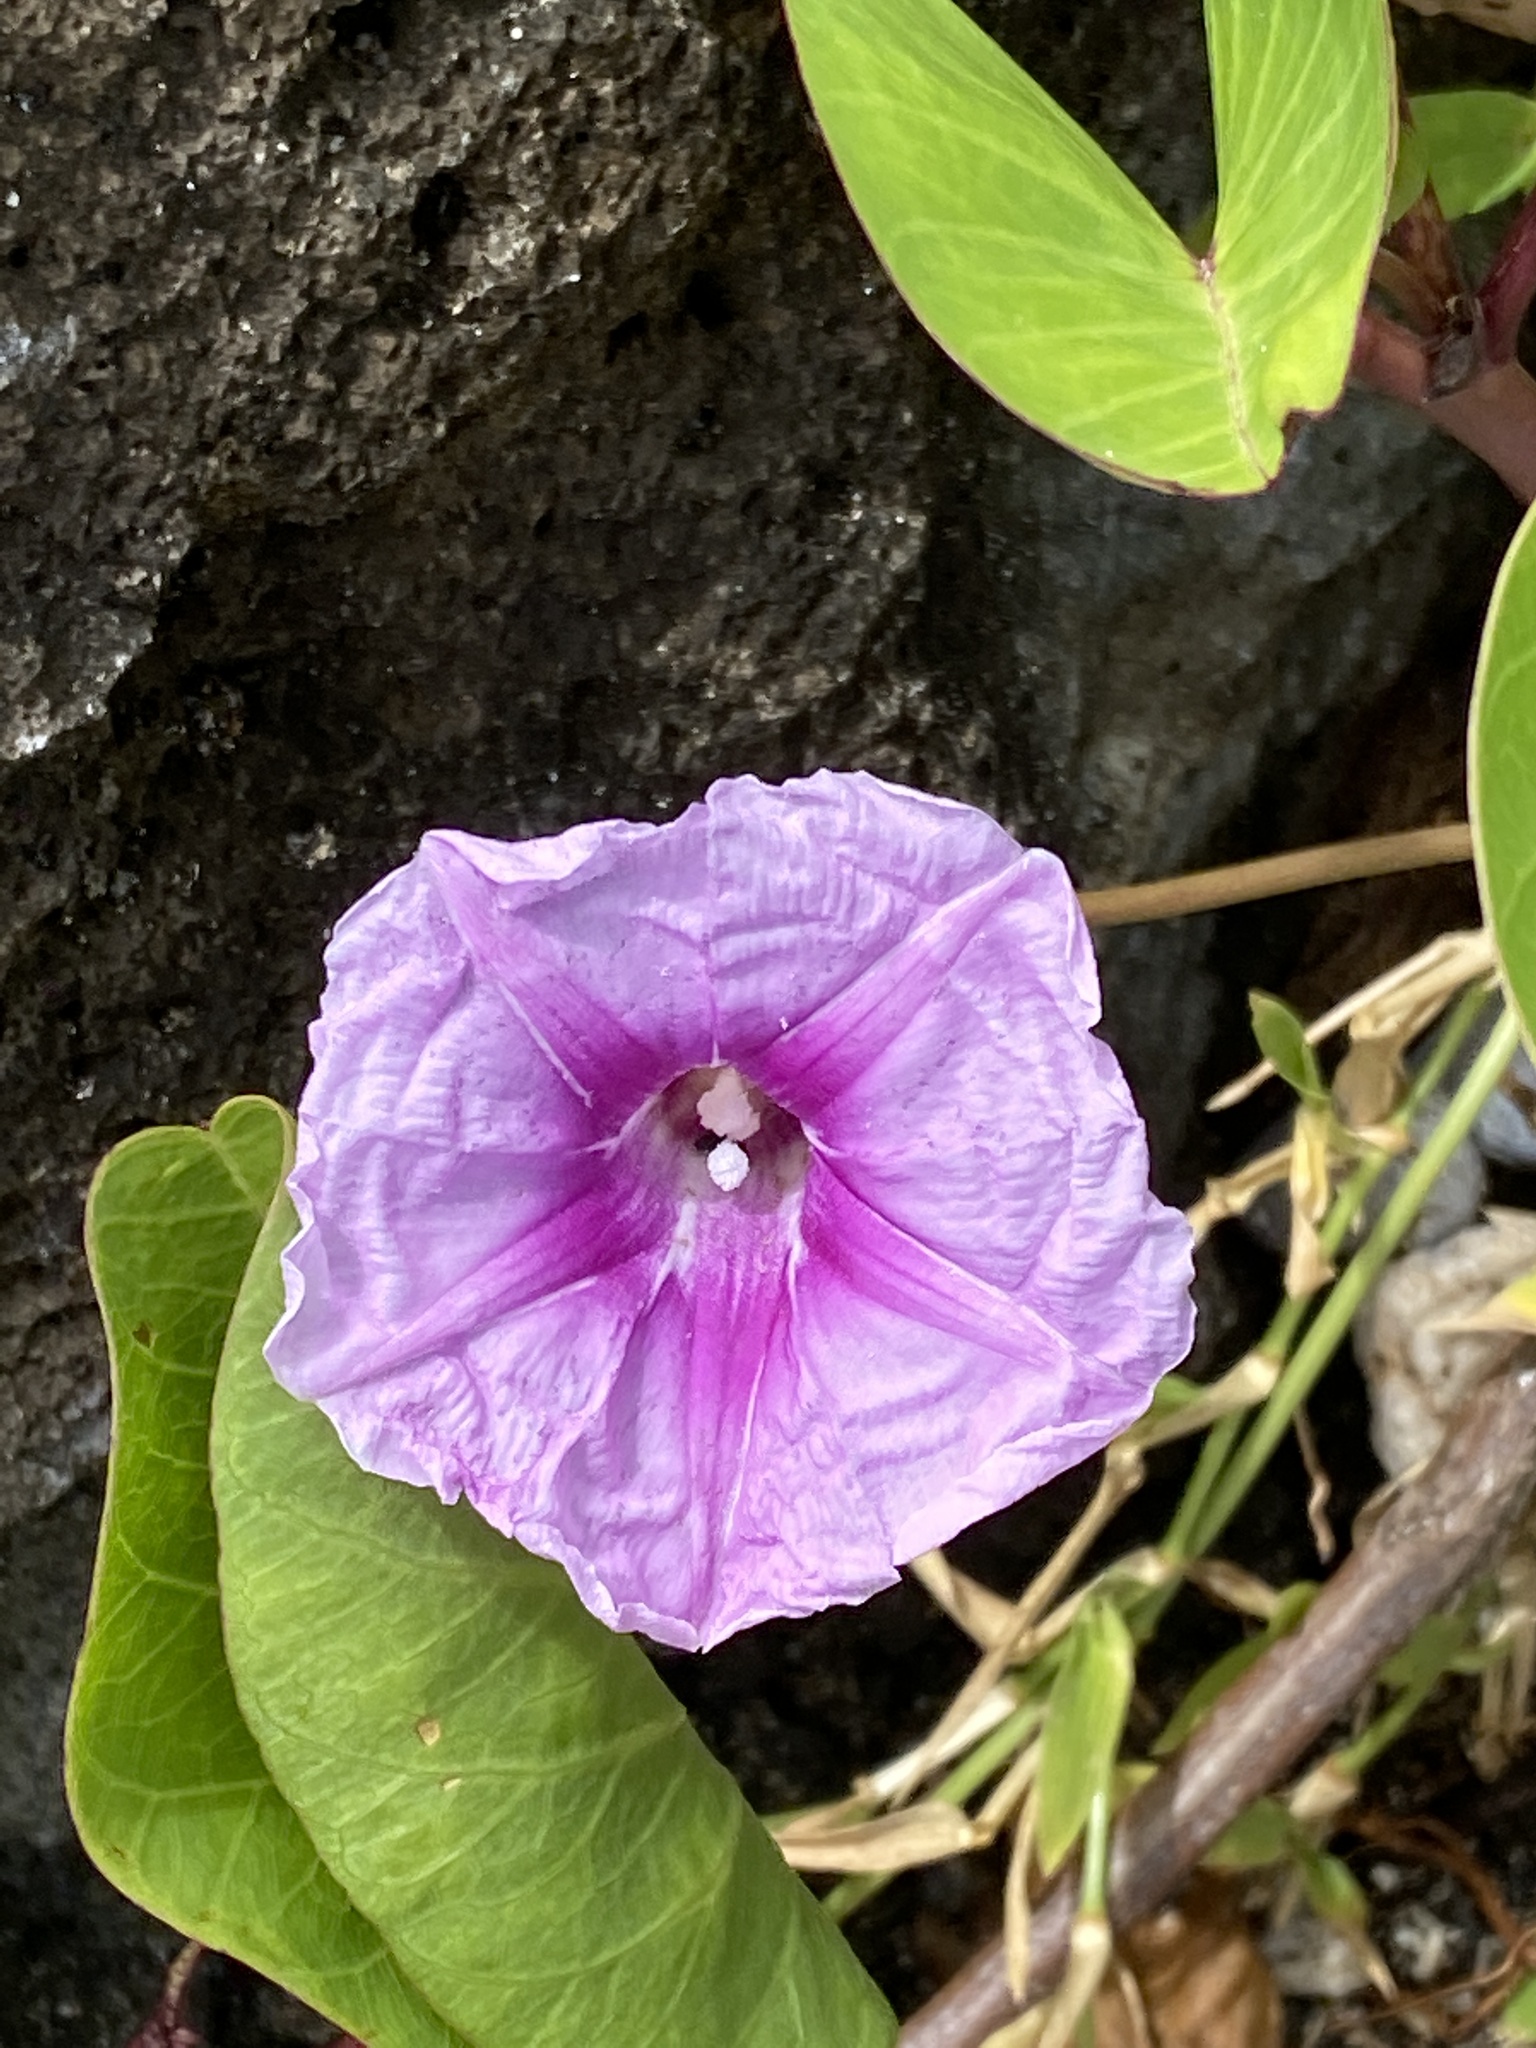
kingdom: Plantae
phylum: Tracheophyta
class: Magnoliopsida
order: Solanales
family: Convolvulaceae
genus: Ipomoea
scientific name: Ipomoea pes-caprae
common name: Beach morning glory
